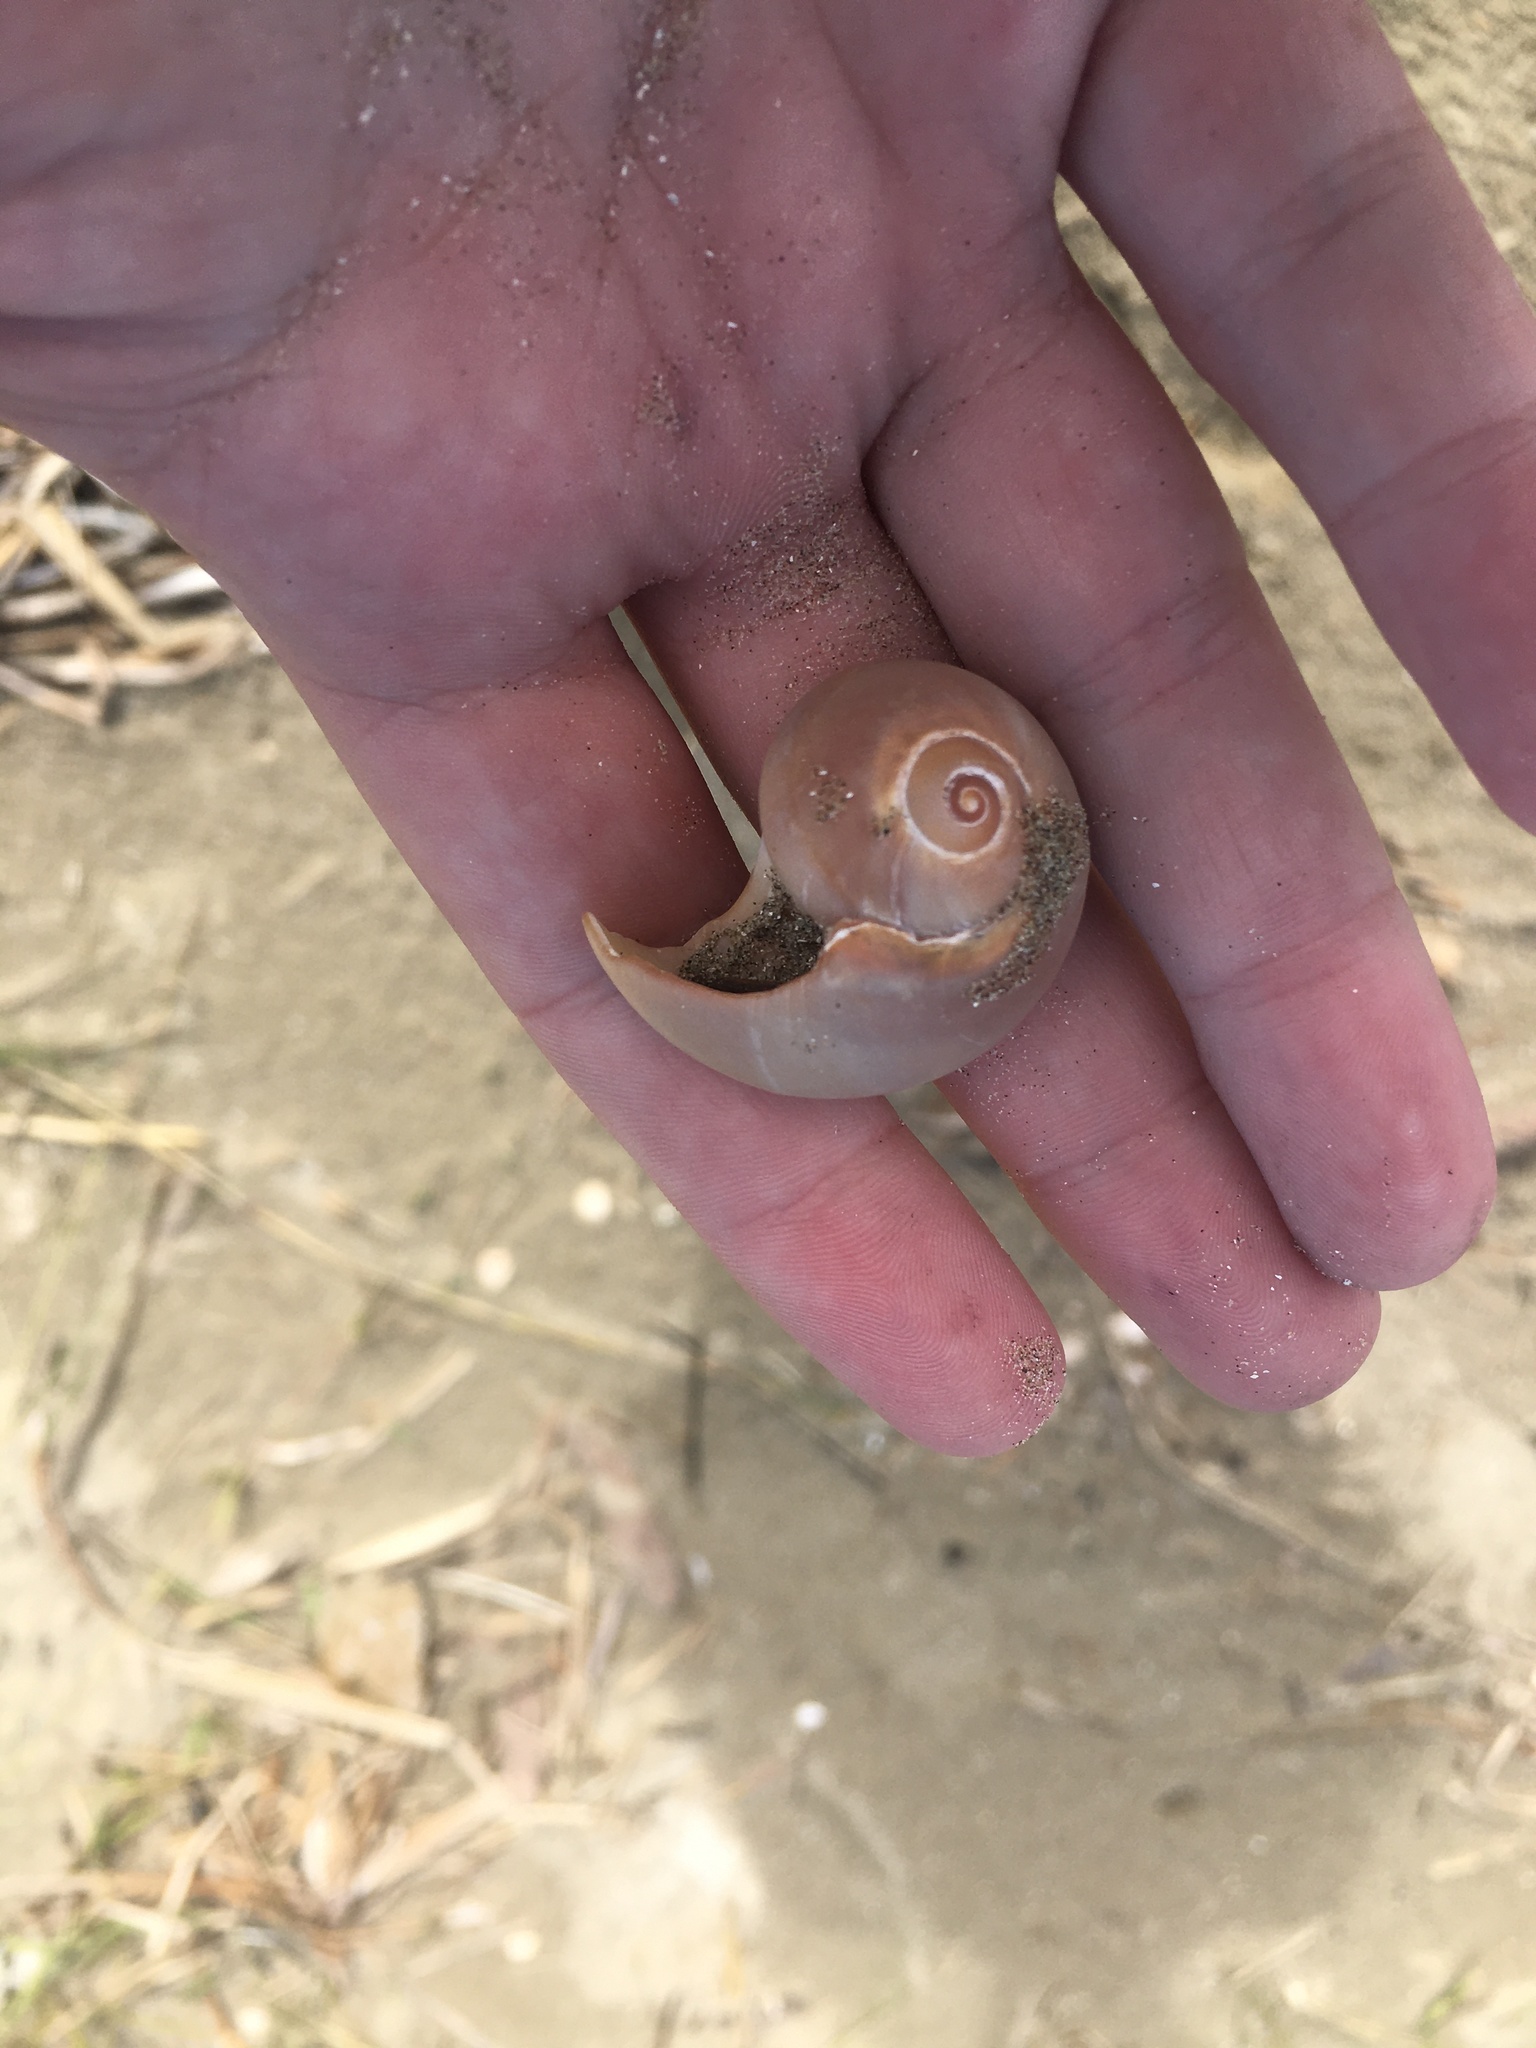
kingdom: Animalia
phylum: Mollusca
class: Gastropoda
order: Littorinimorpha
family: Naticidae
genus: Neverita
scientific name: Neverita duplicata
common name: Lobed moonsnail
